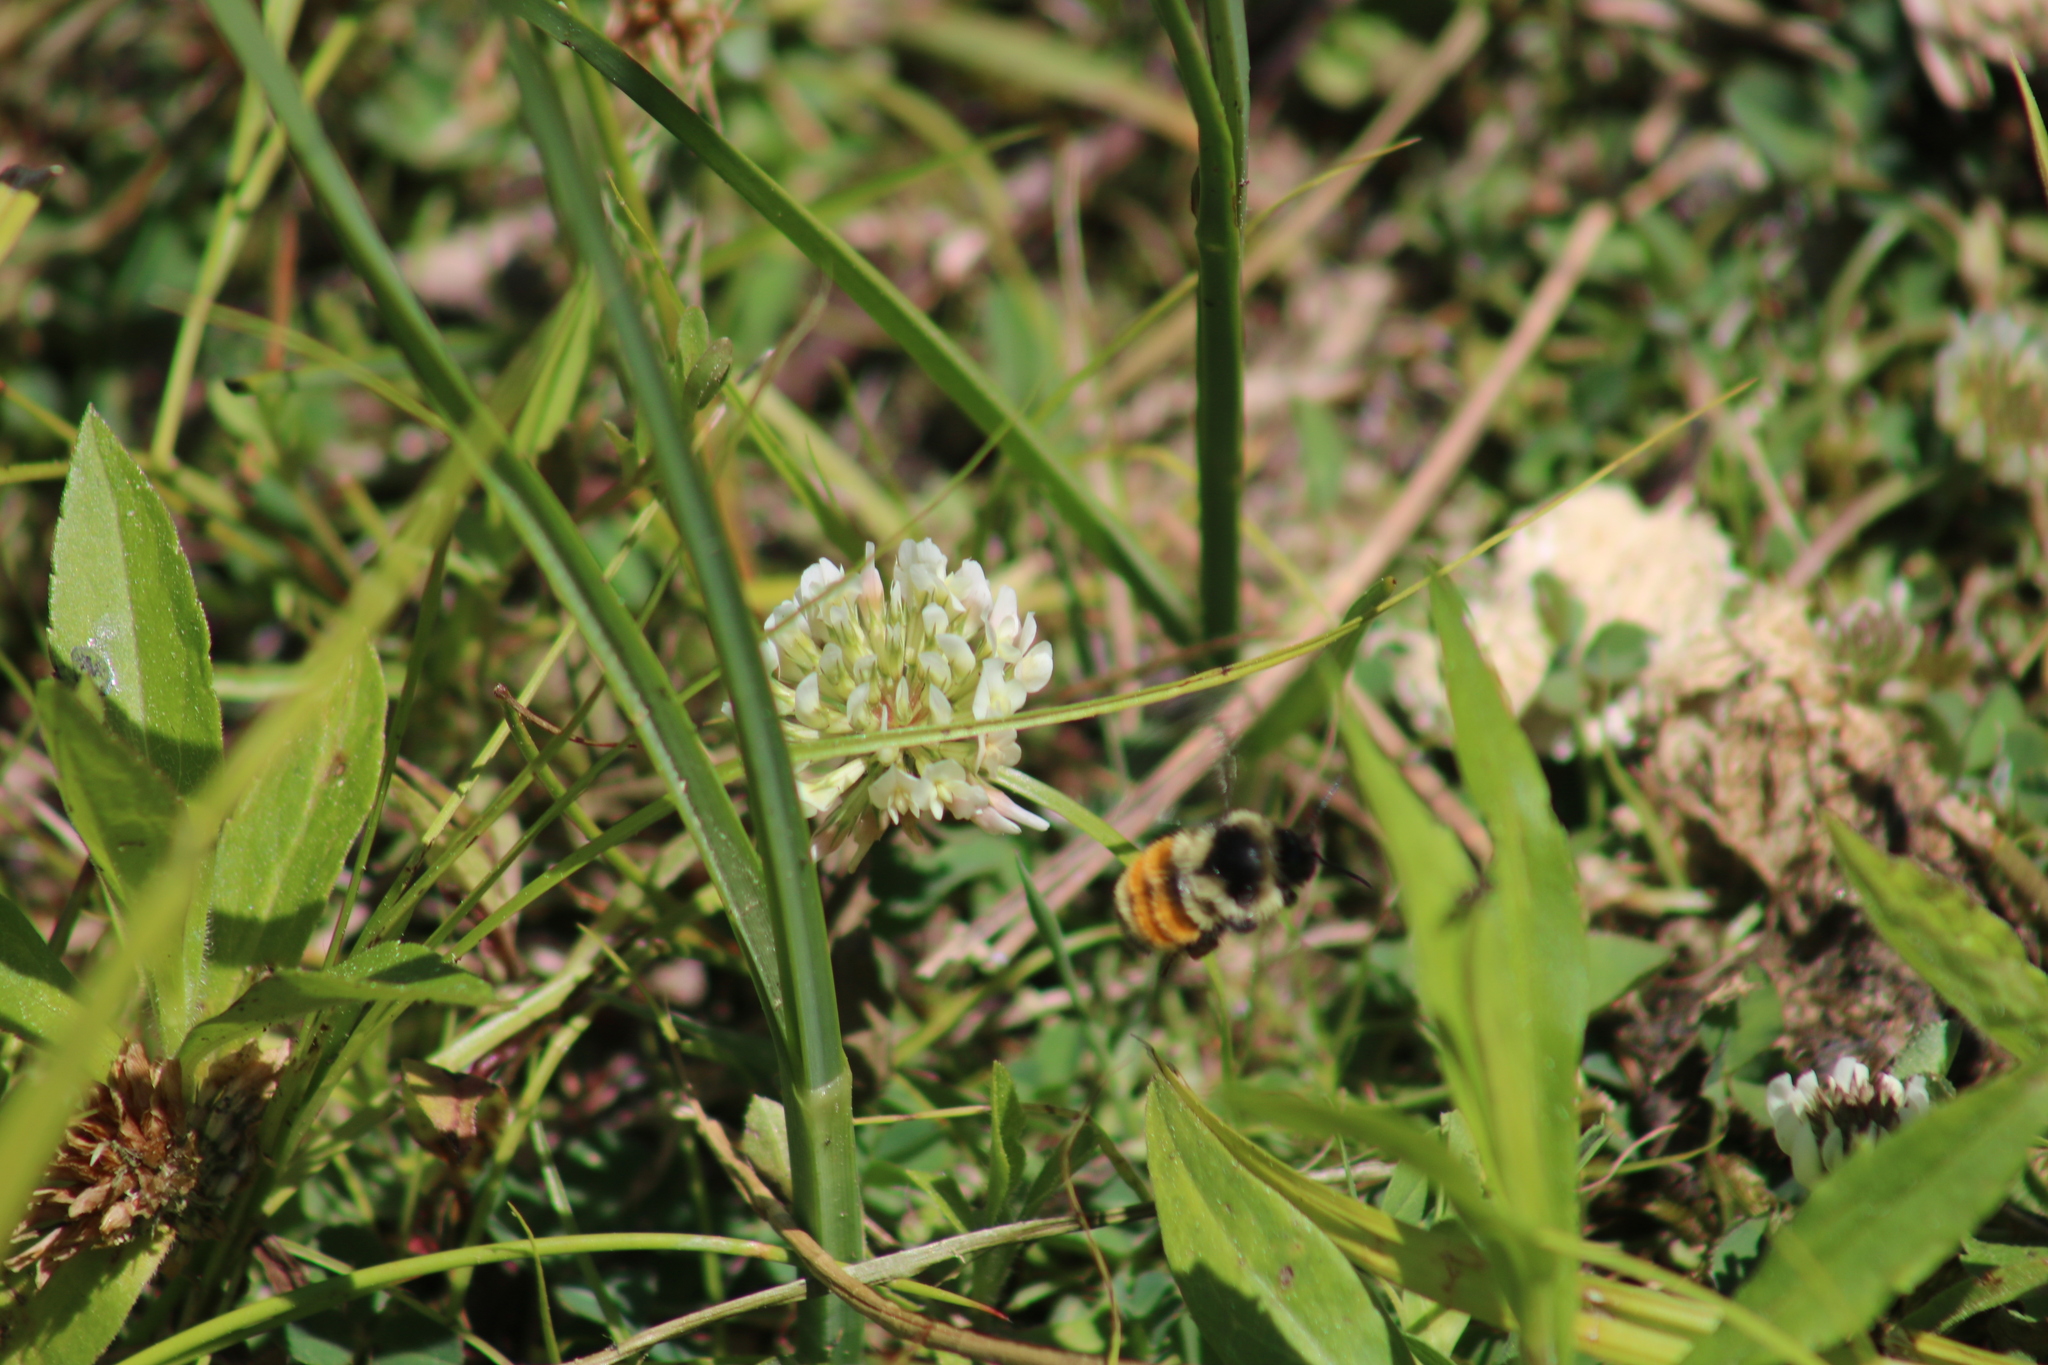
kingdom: Animalia
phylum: Arthropoda
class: Insecta
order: Hymenoptera
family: Apidae
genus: Bombus
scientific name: Bombus ternarius
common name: Tri-colored bumble bee
